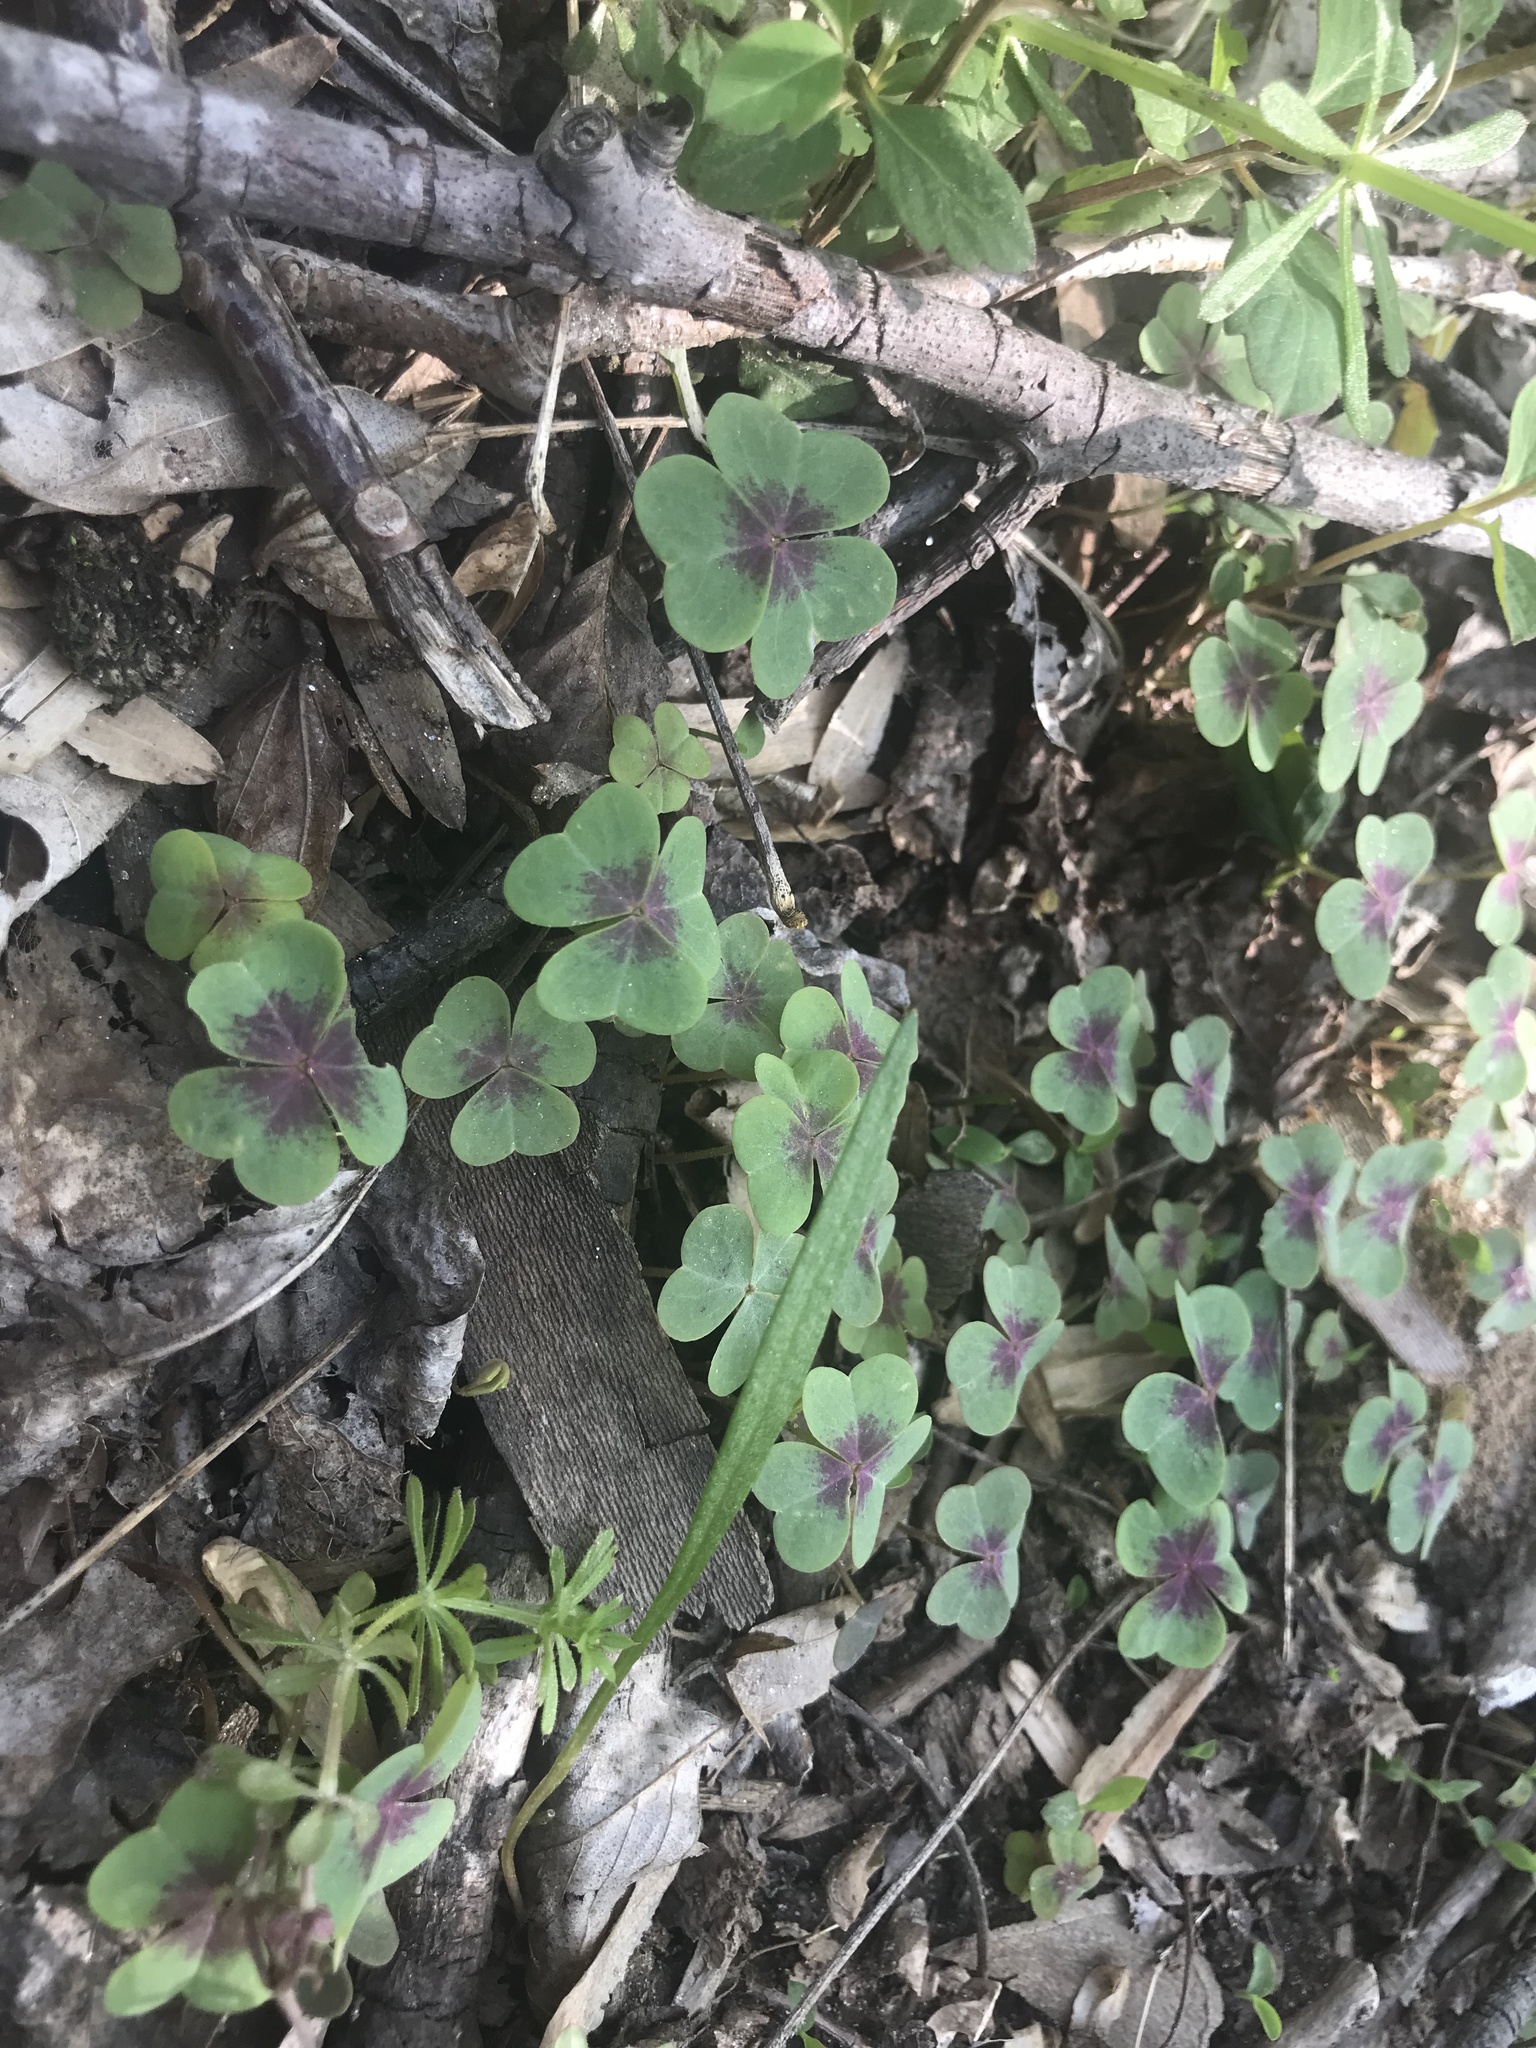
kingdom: Plantae
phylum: Tracheophyta
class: Magnoliopsida
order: Oxalidales
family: Oxalidaceae
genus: Oxalis
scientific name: Oxalis violacea
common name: Violet wood-sorrel
